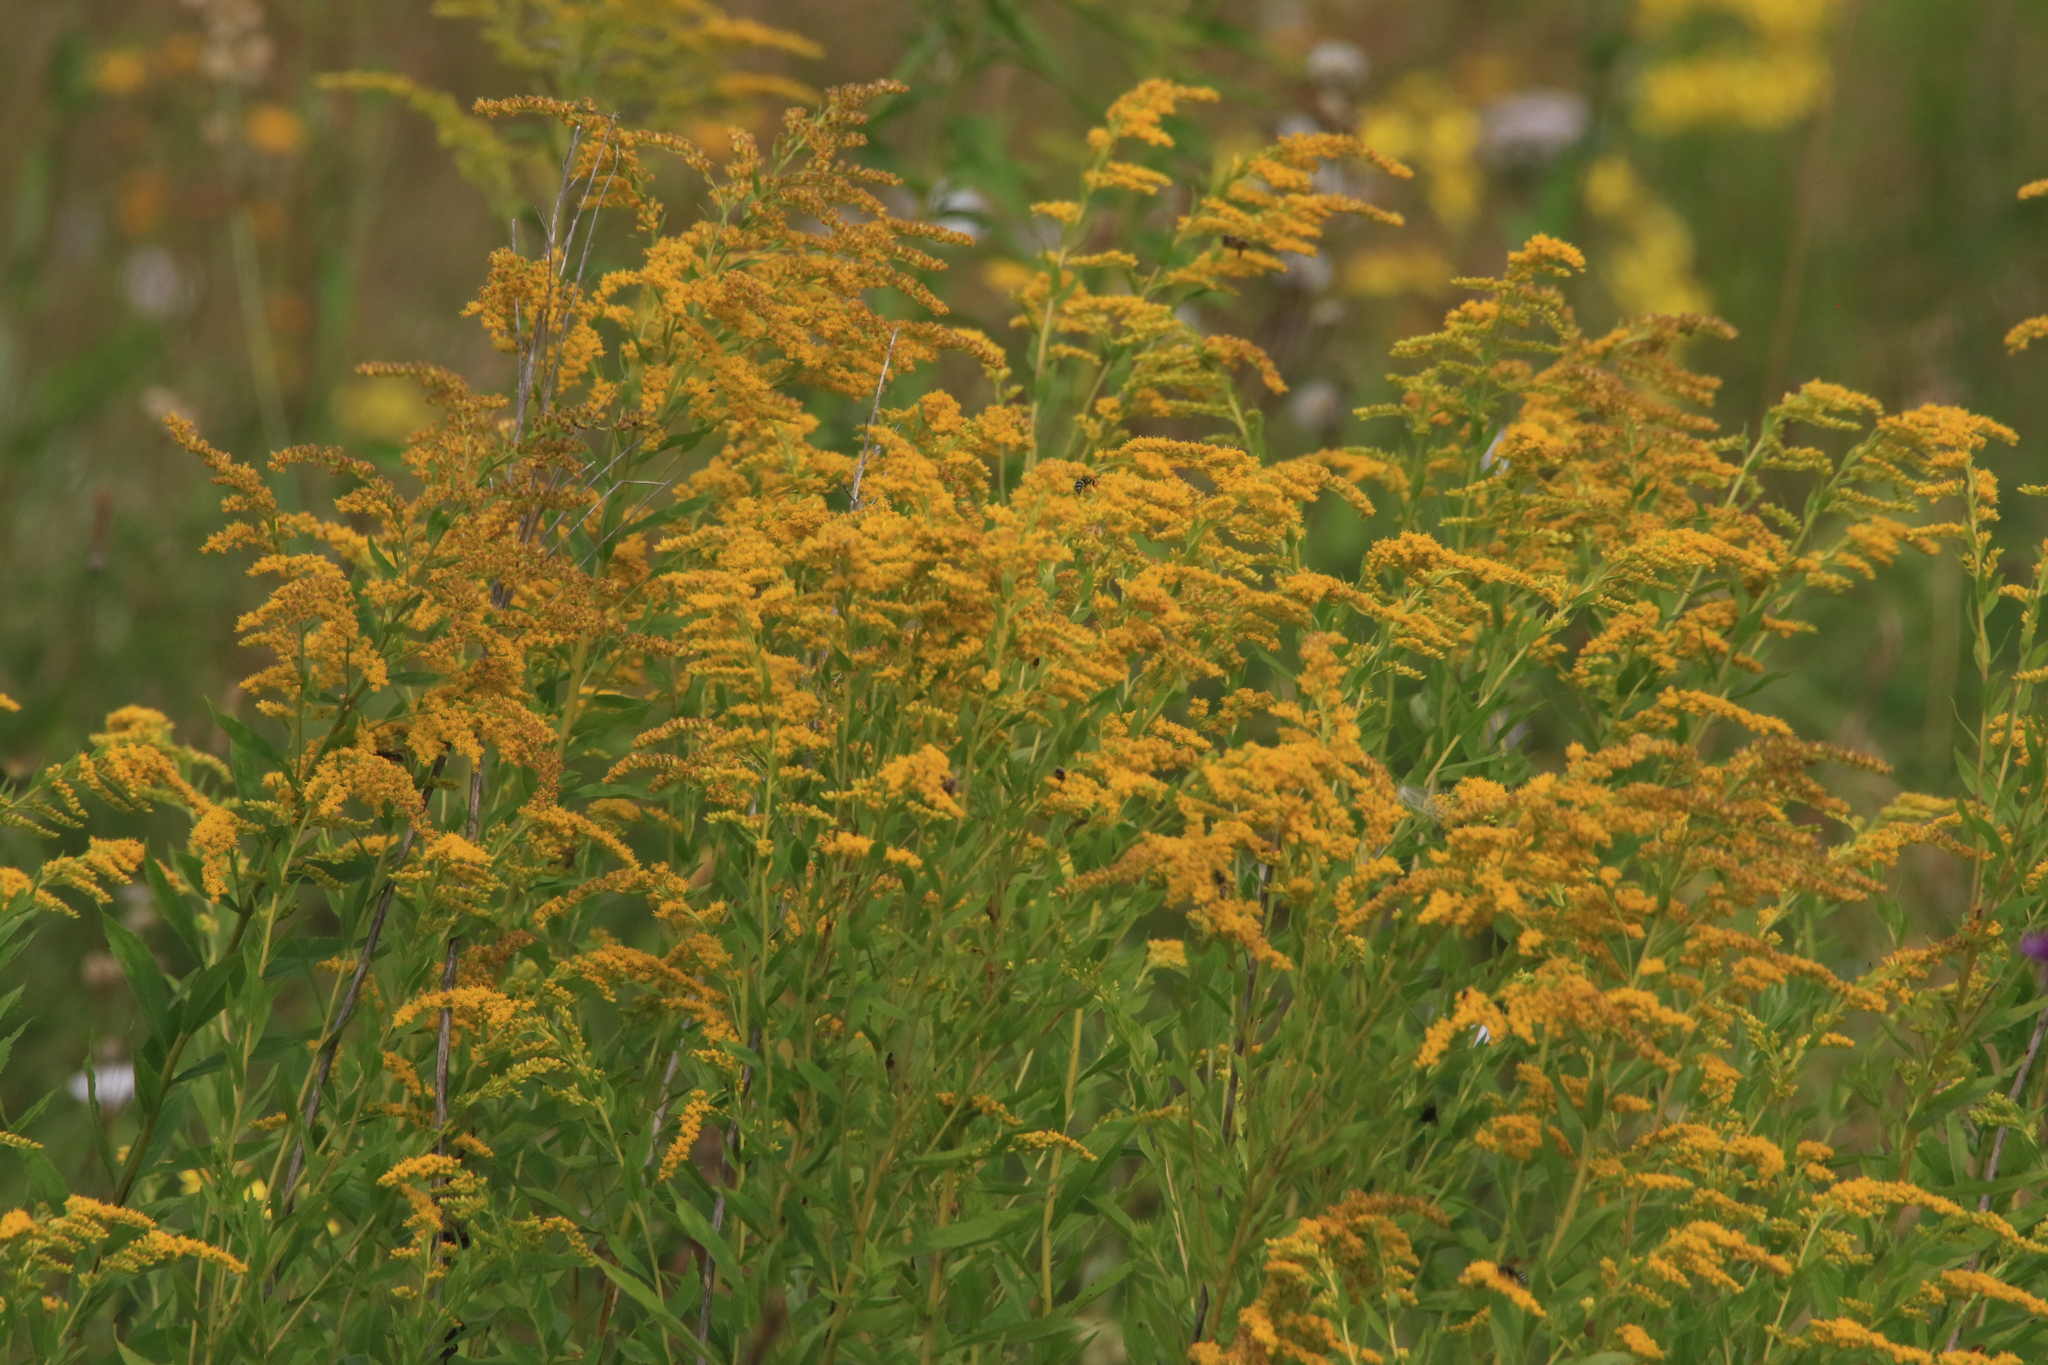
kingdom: Plantae
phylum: Tracheophyta
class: Magnoliopsida
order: Asterales
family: Asteraceae
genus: Solidago
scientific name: Solidago canadensis
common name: Canada goldenrod
